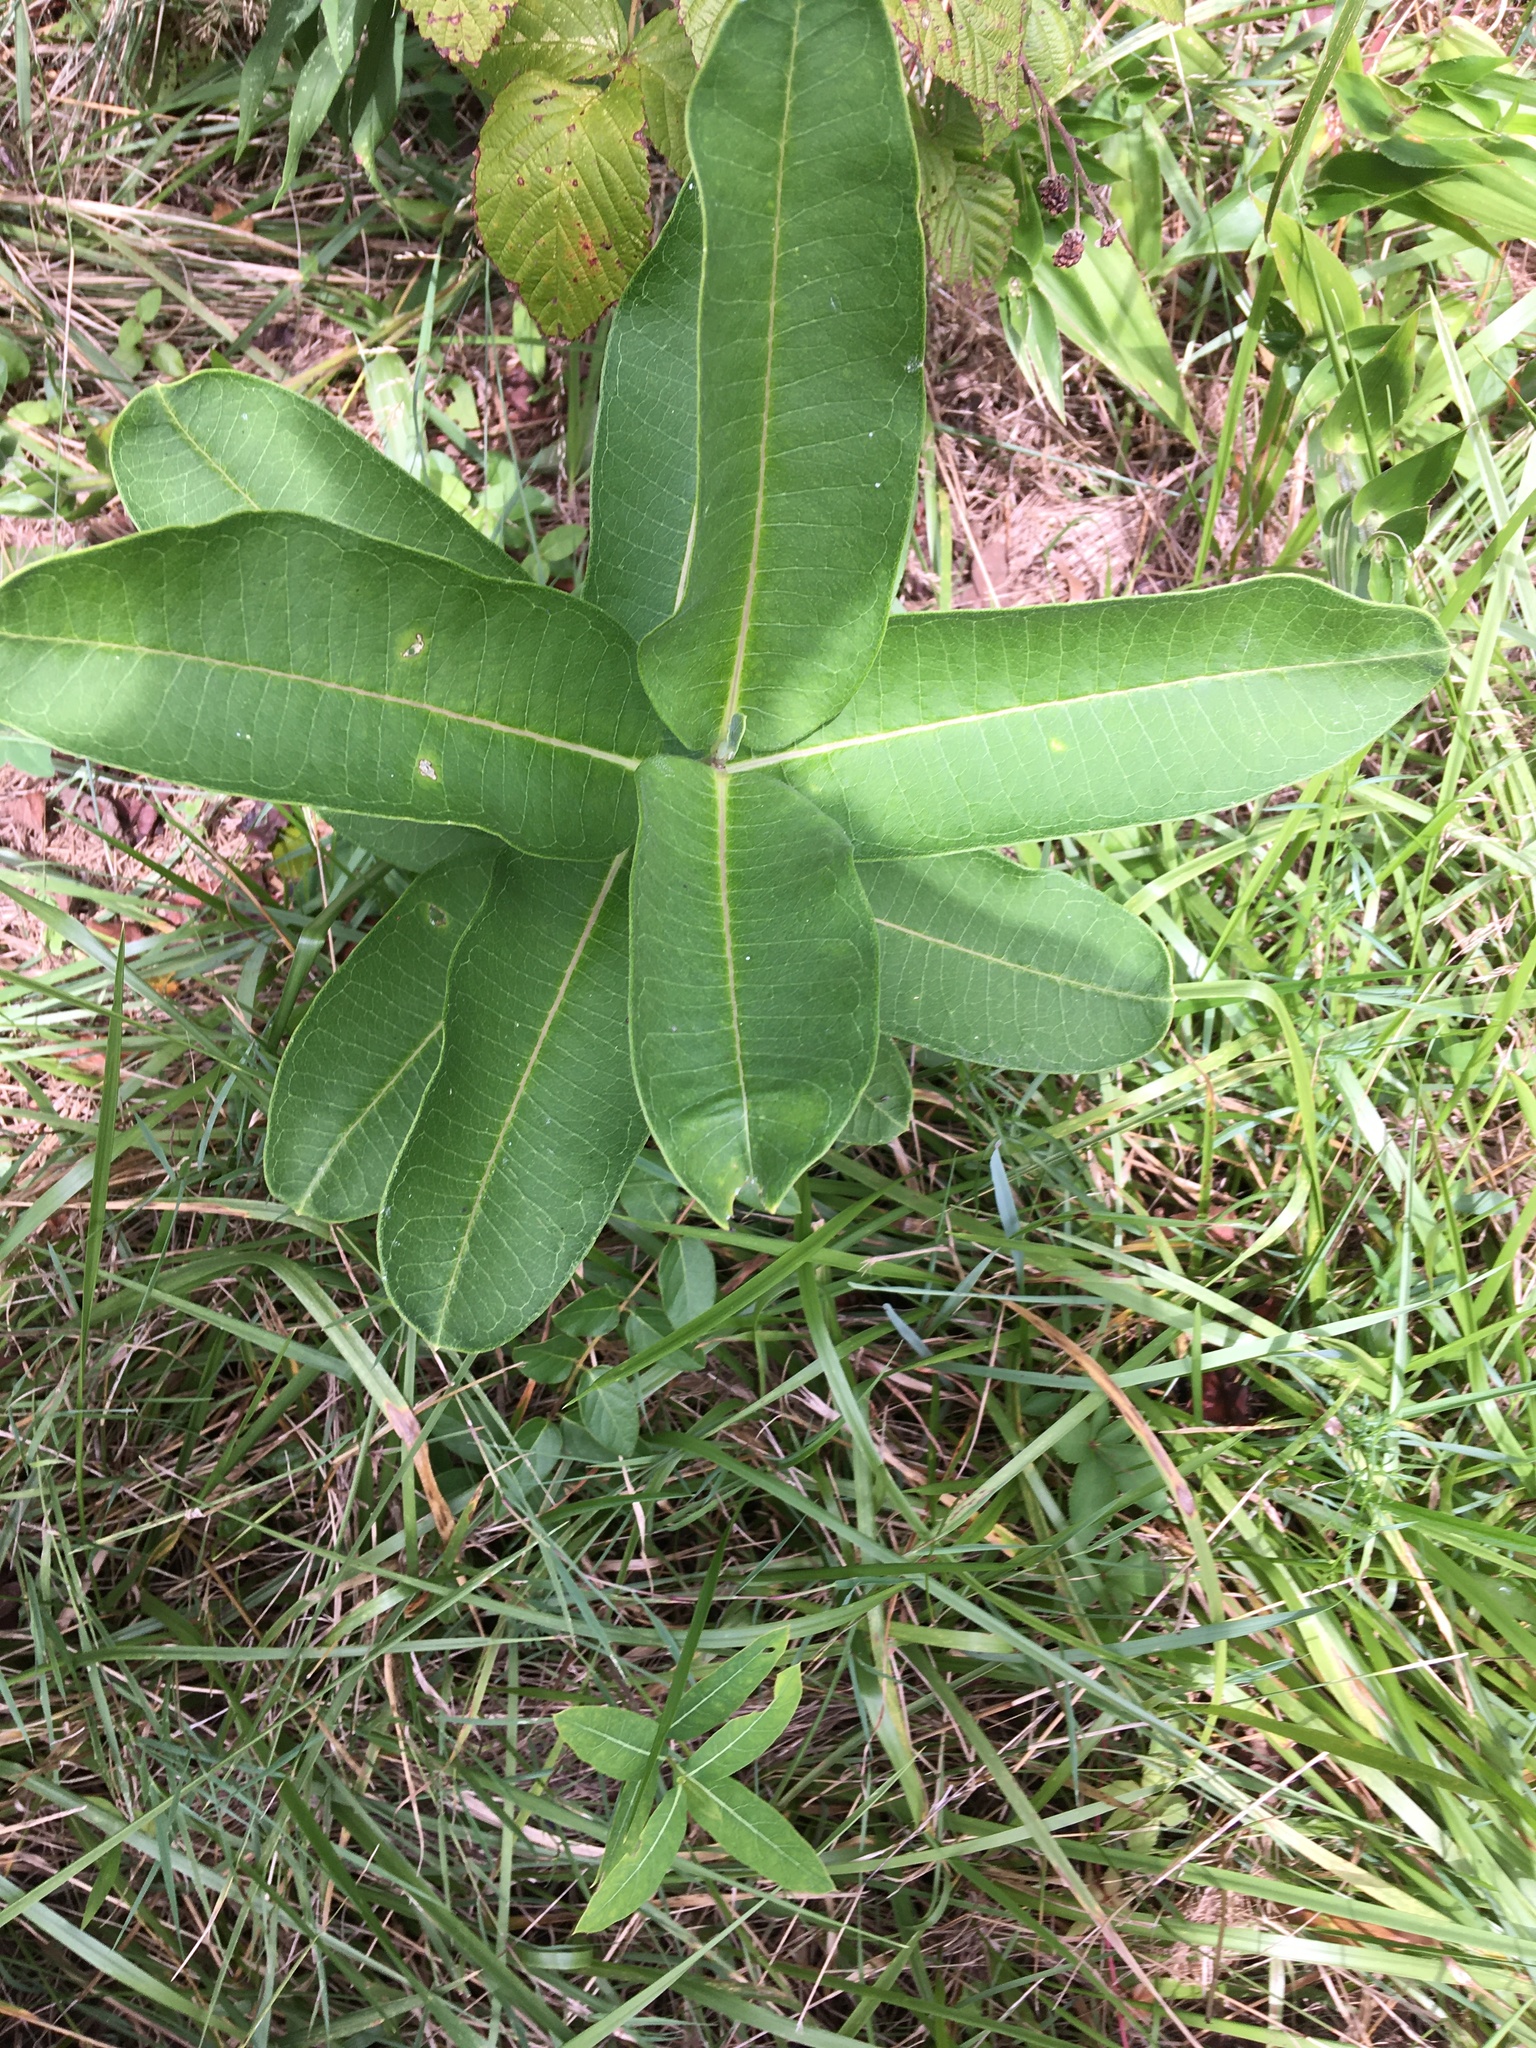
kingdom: Plantae
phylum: Tracheophyta
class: Magnoliopsida
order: Gentianales
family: Apocynaceae
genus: Asclepias
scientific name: Asclepias syriaca
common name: Common milkweed
